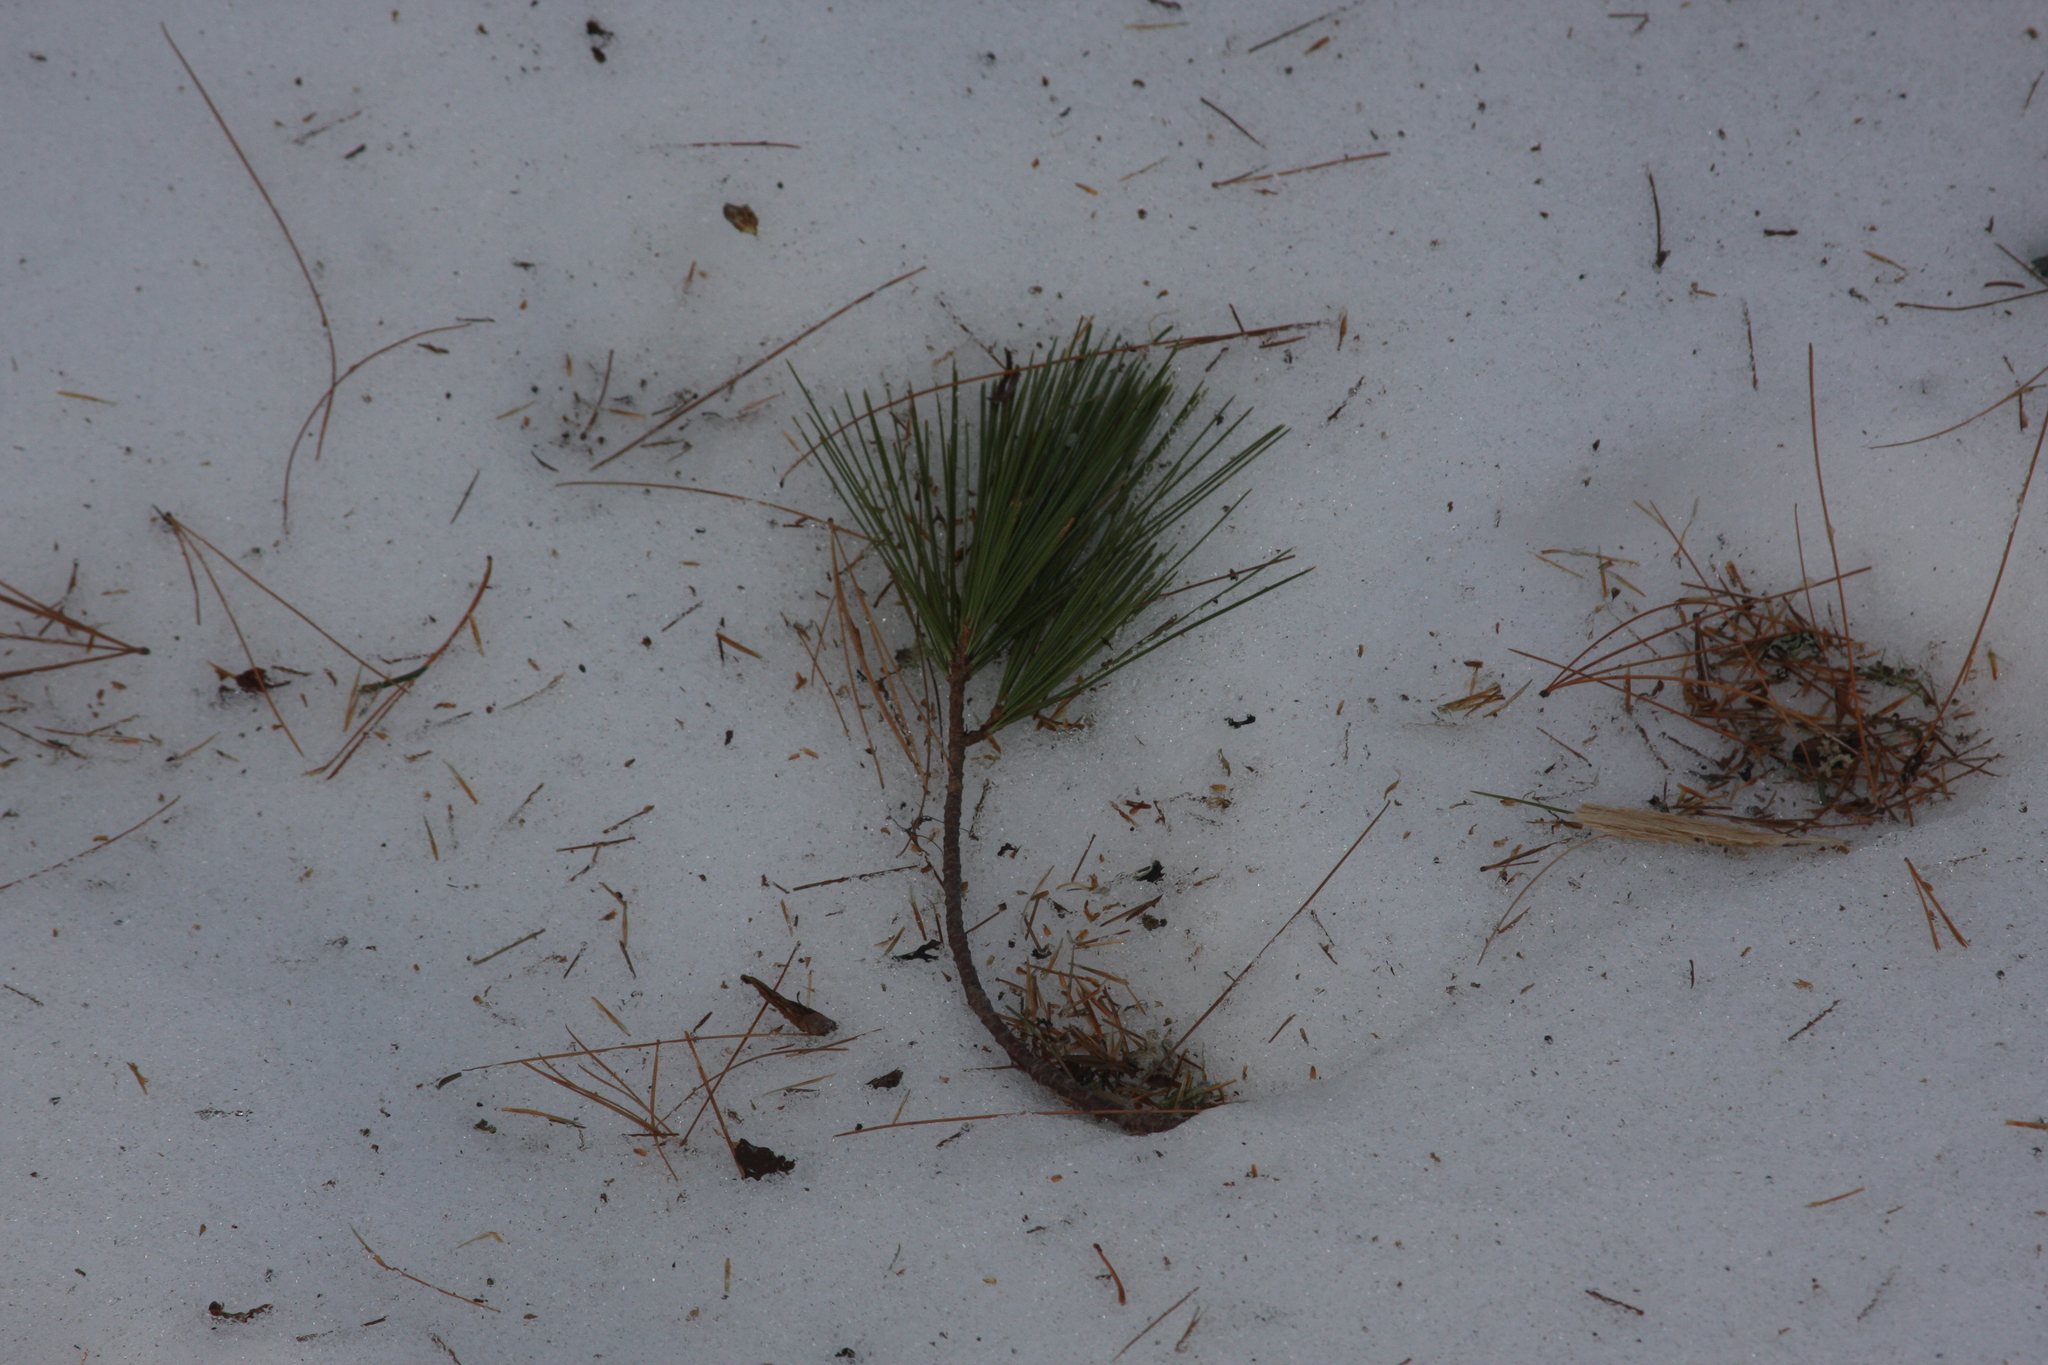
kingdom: Plantae
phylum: Tracheophyta
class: Pinopsida
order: Pinales
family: Pinaceae
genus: Pinus
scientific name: Pinus strobus
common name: Weymouth pine
